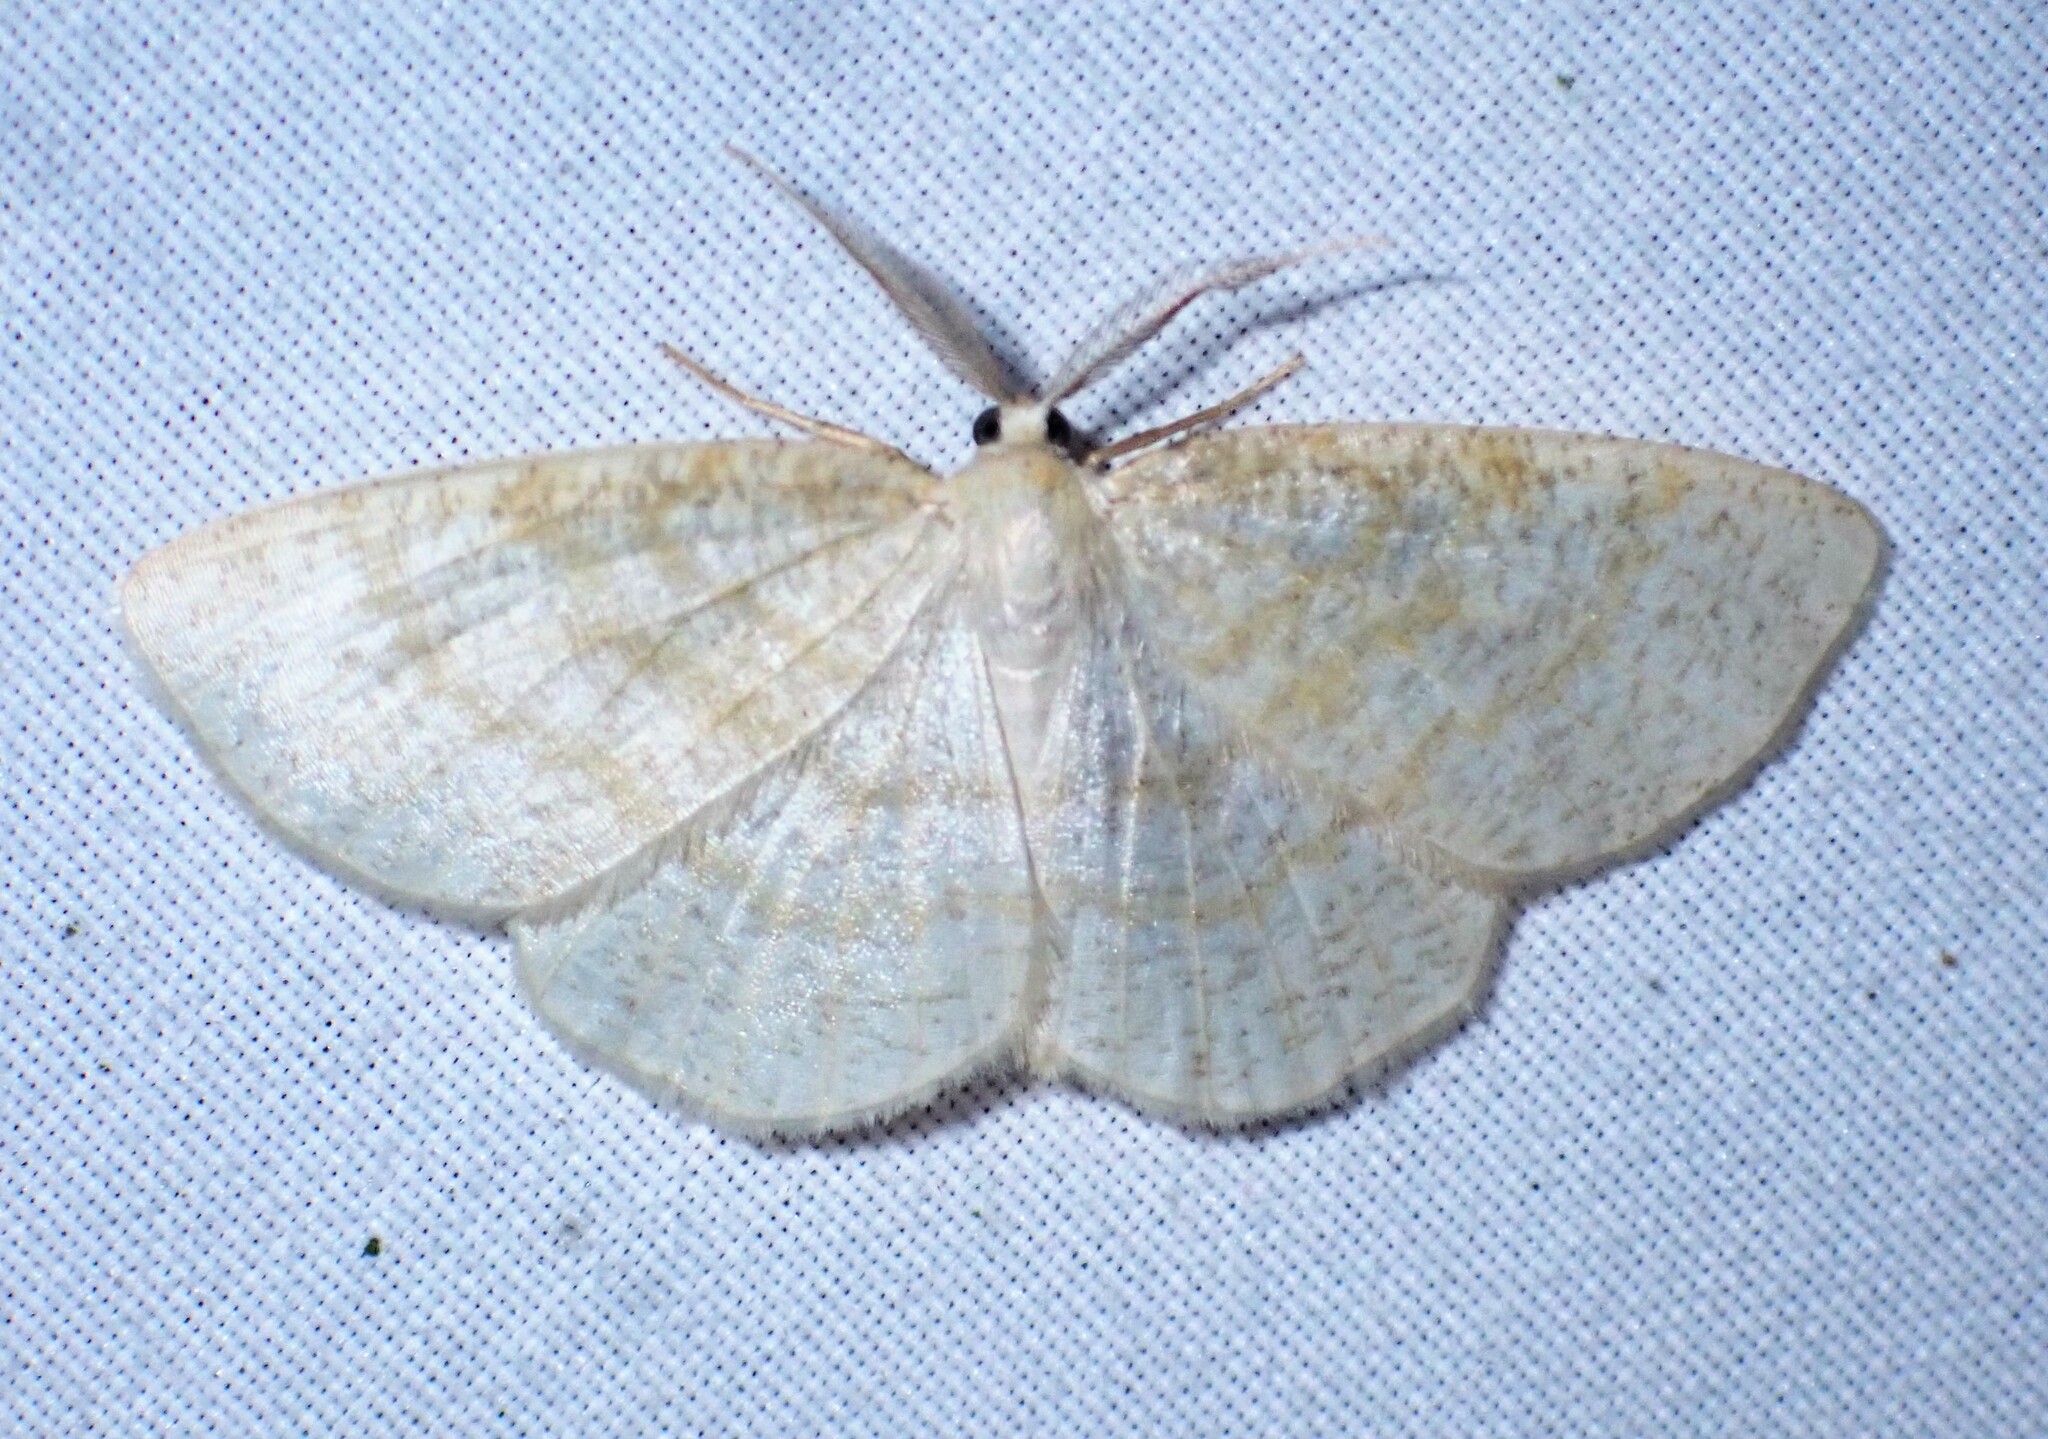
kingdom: Animalia
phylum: Arthropoda
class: Insecta
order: Lepidoptera
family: Geometridae
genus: Cabera
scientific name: Cabera erythemaria
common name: Yellow-dusted cream moth
